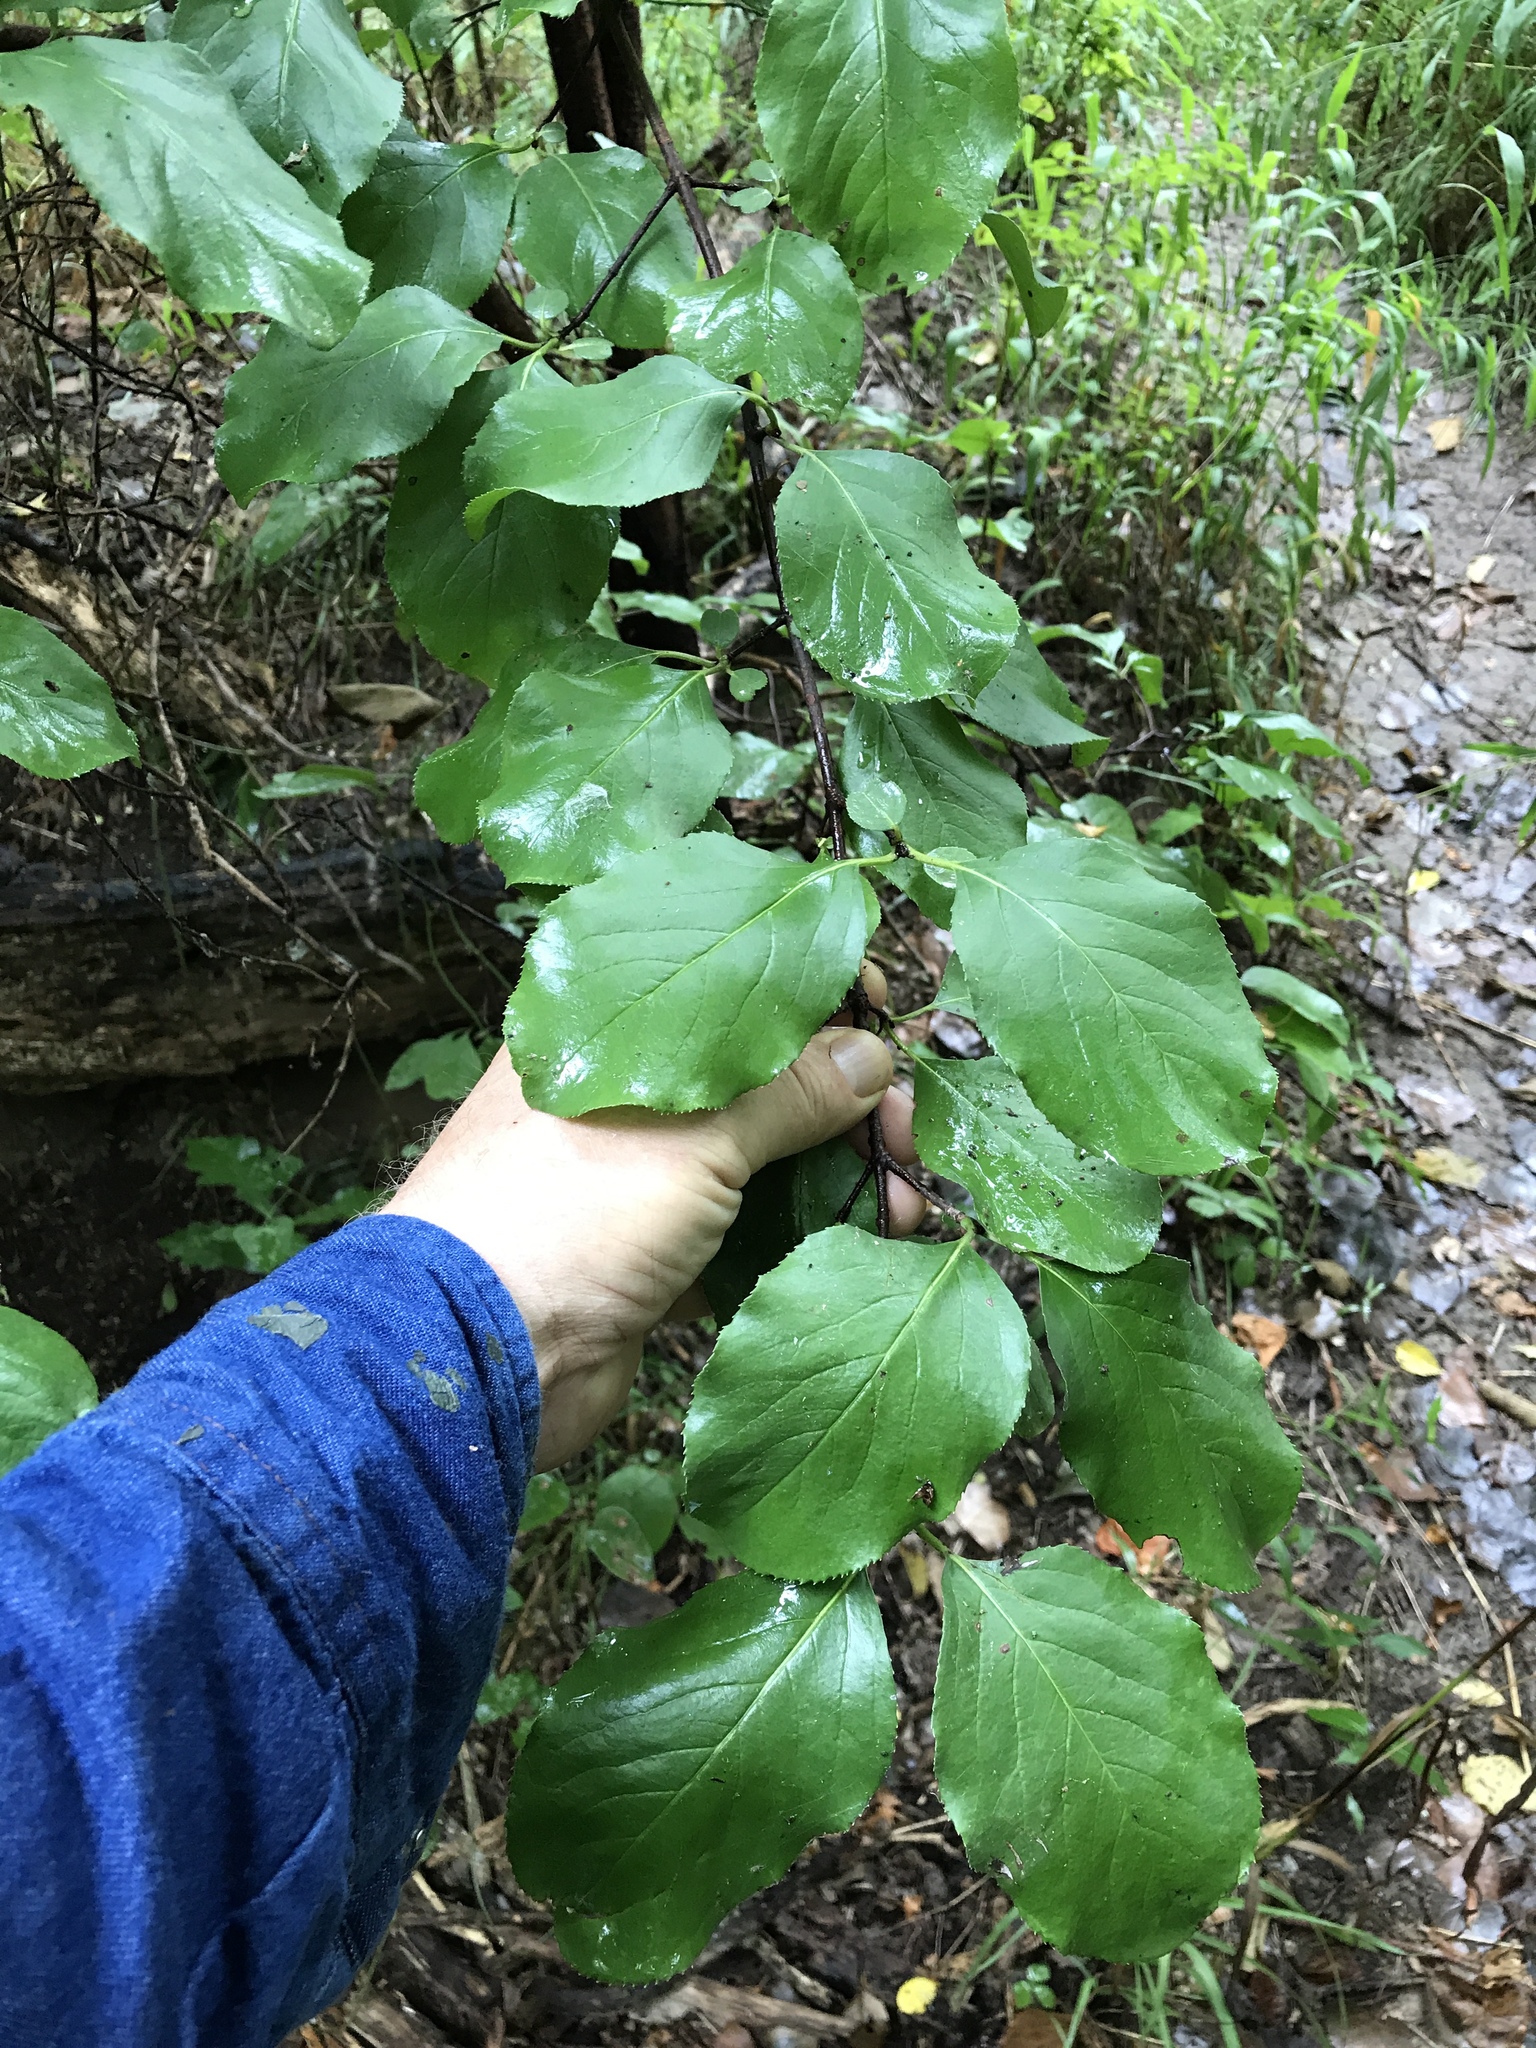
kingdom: Plantae
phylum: Tracheophyta
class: Magnoliopsida
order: Dipsacales
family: Viburnaceae
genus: Viburnum
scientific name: Viburnum rufidulum
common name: Blue haw
